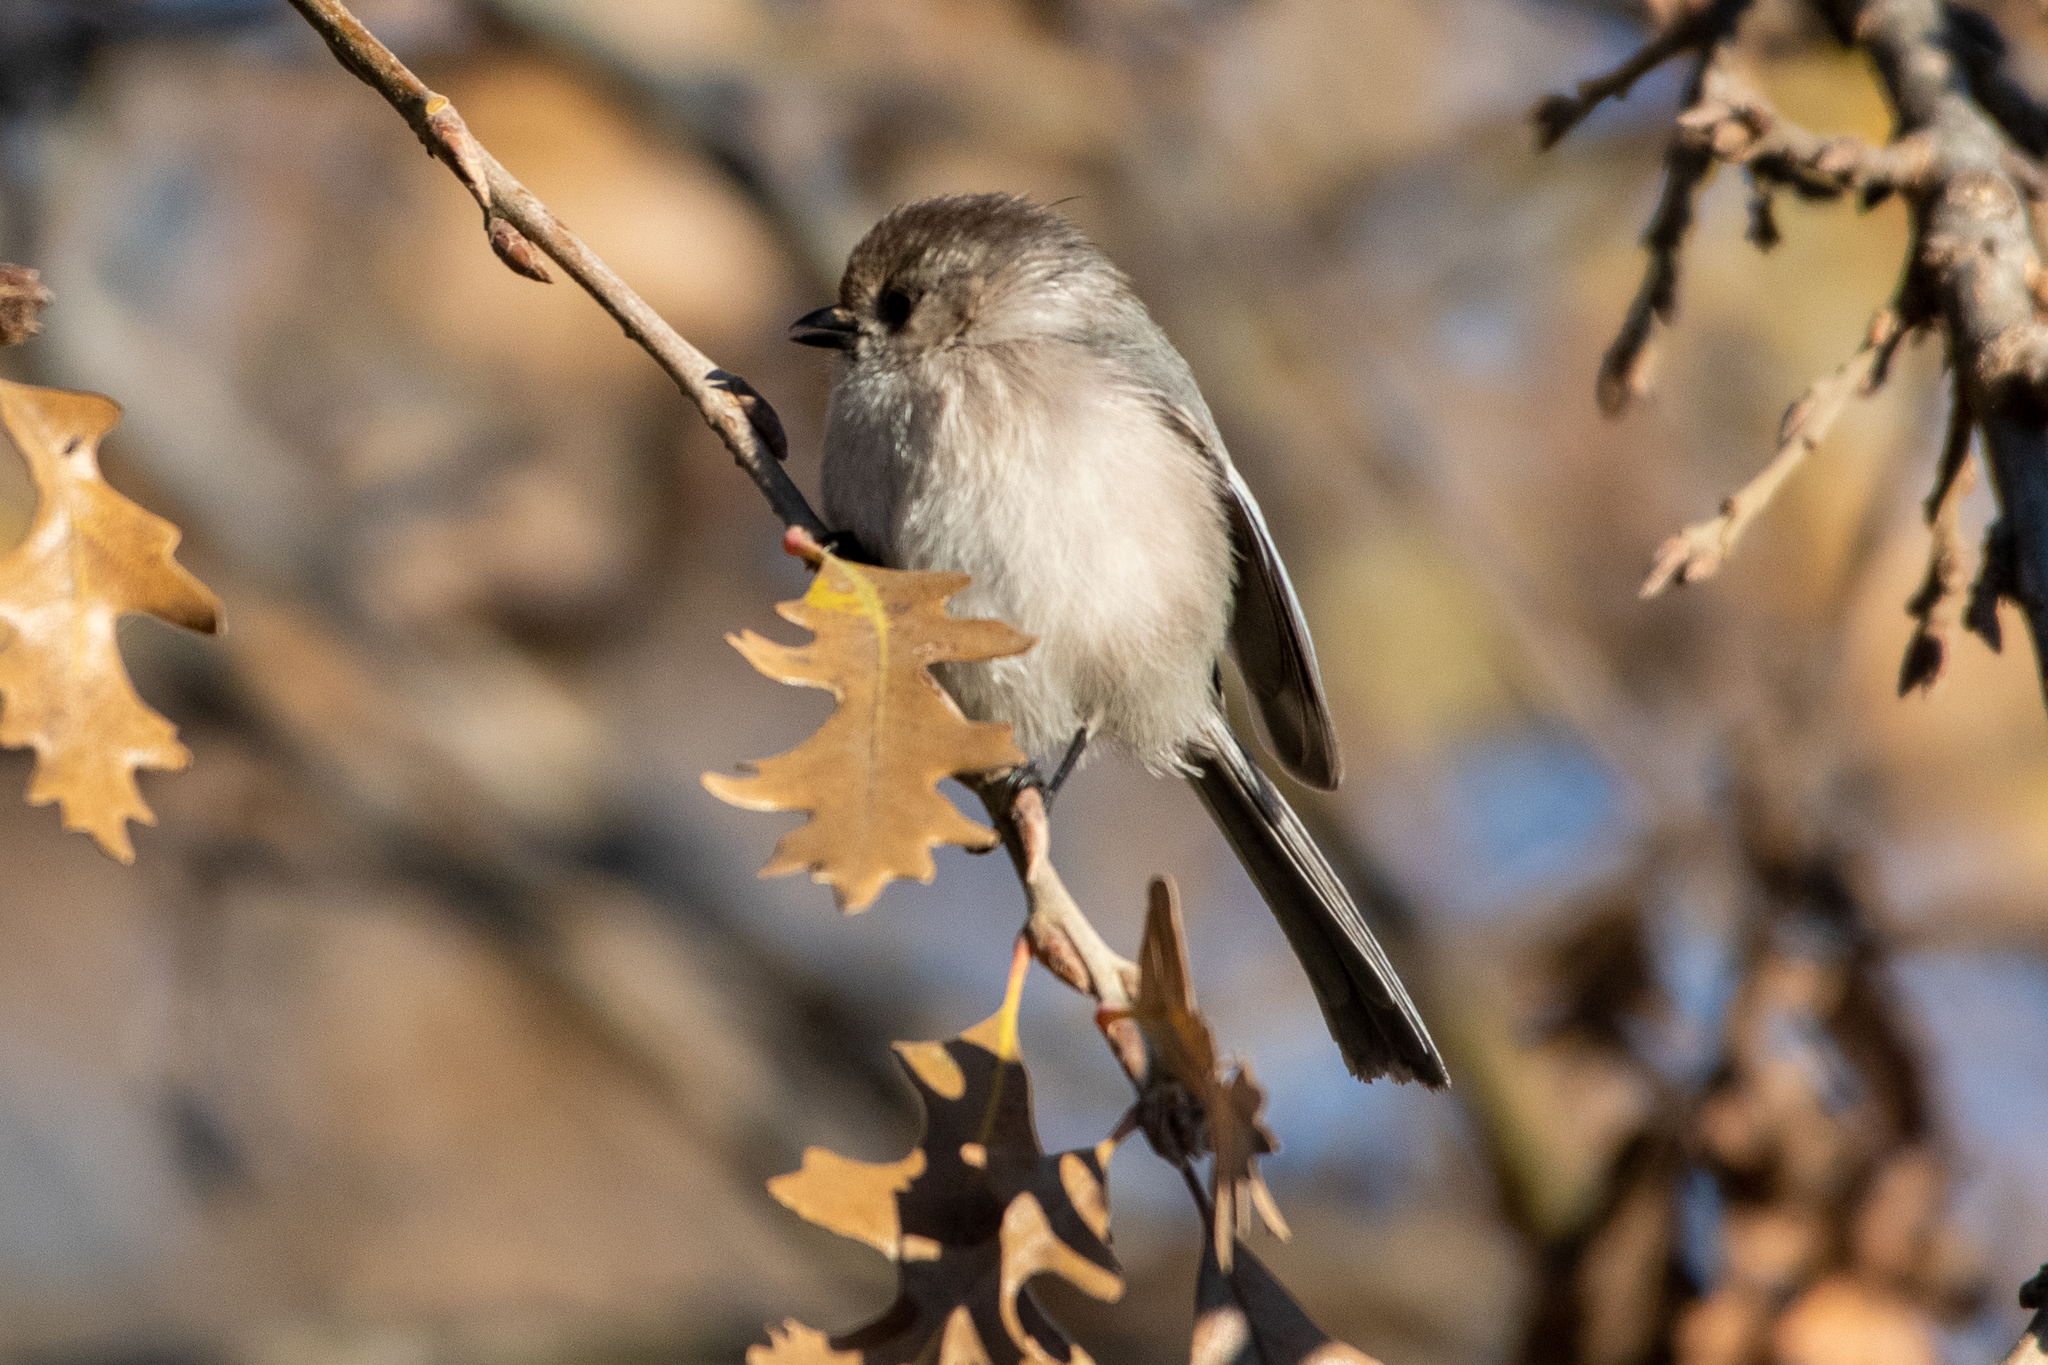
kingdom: Animalia
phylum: Chordata
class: Aves
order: Passeriformes
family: Aegithalidae
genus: Psaltriparus
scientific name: Psaltriparus minimus
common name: American bushtit
